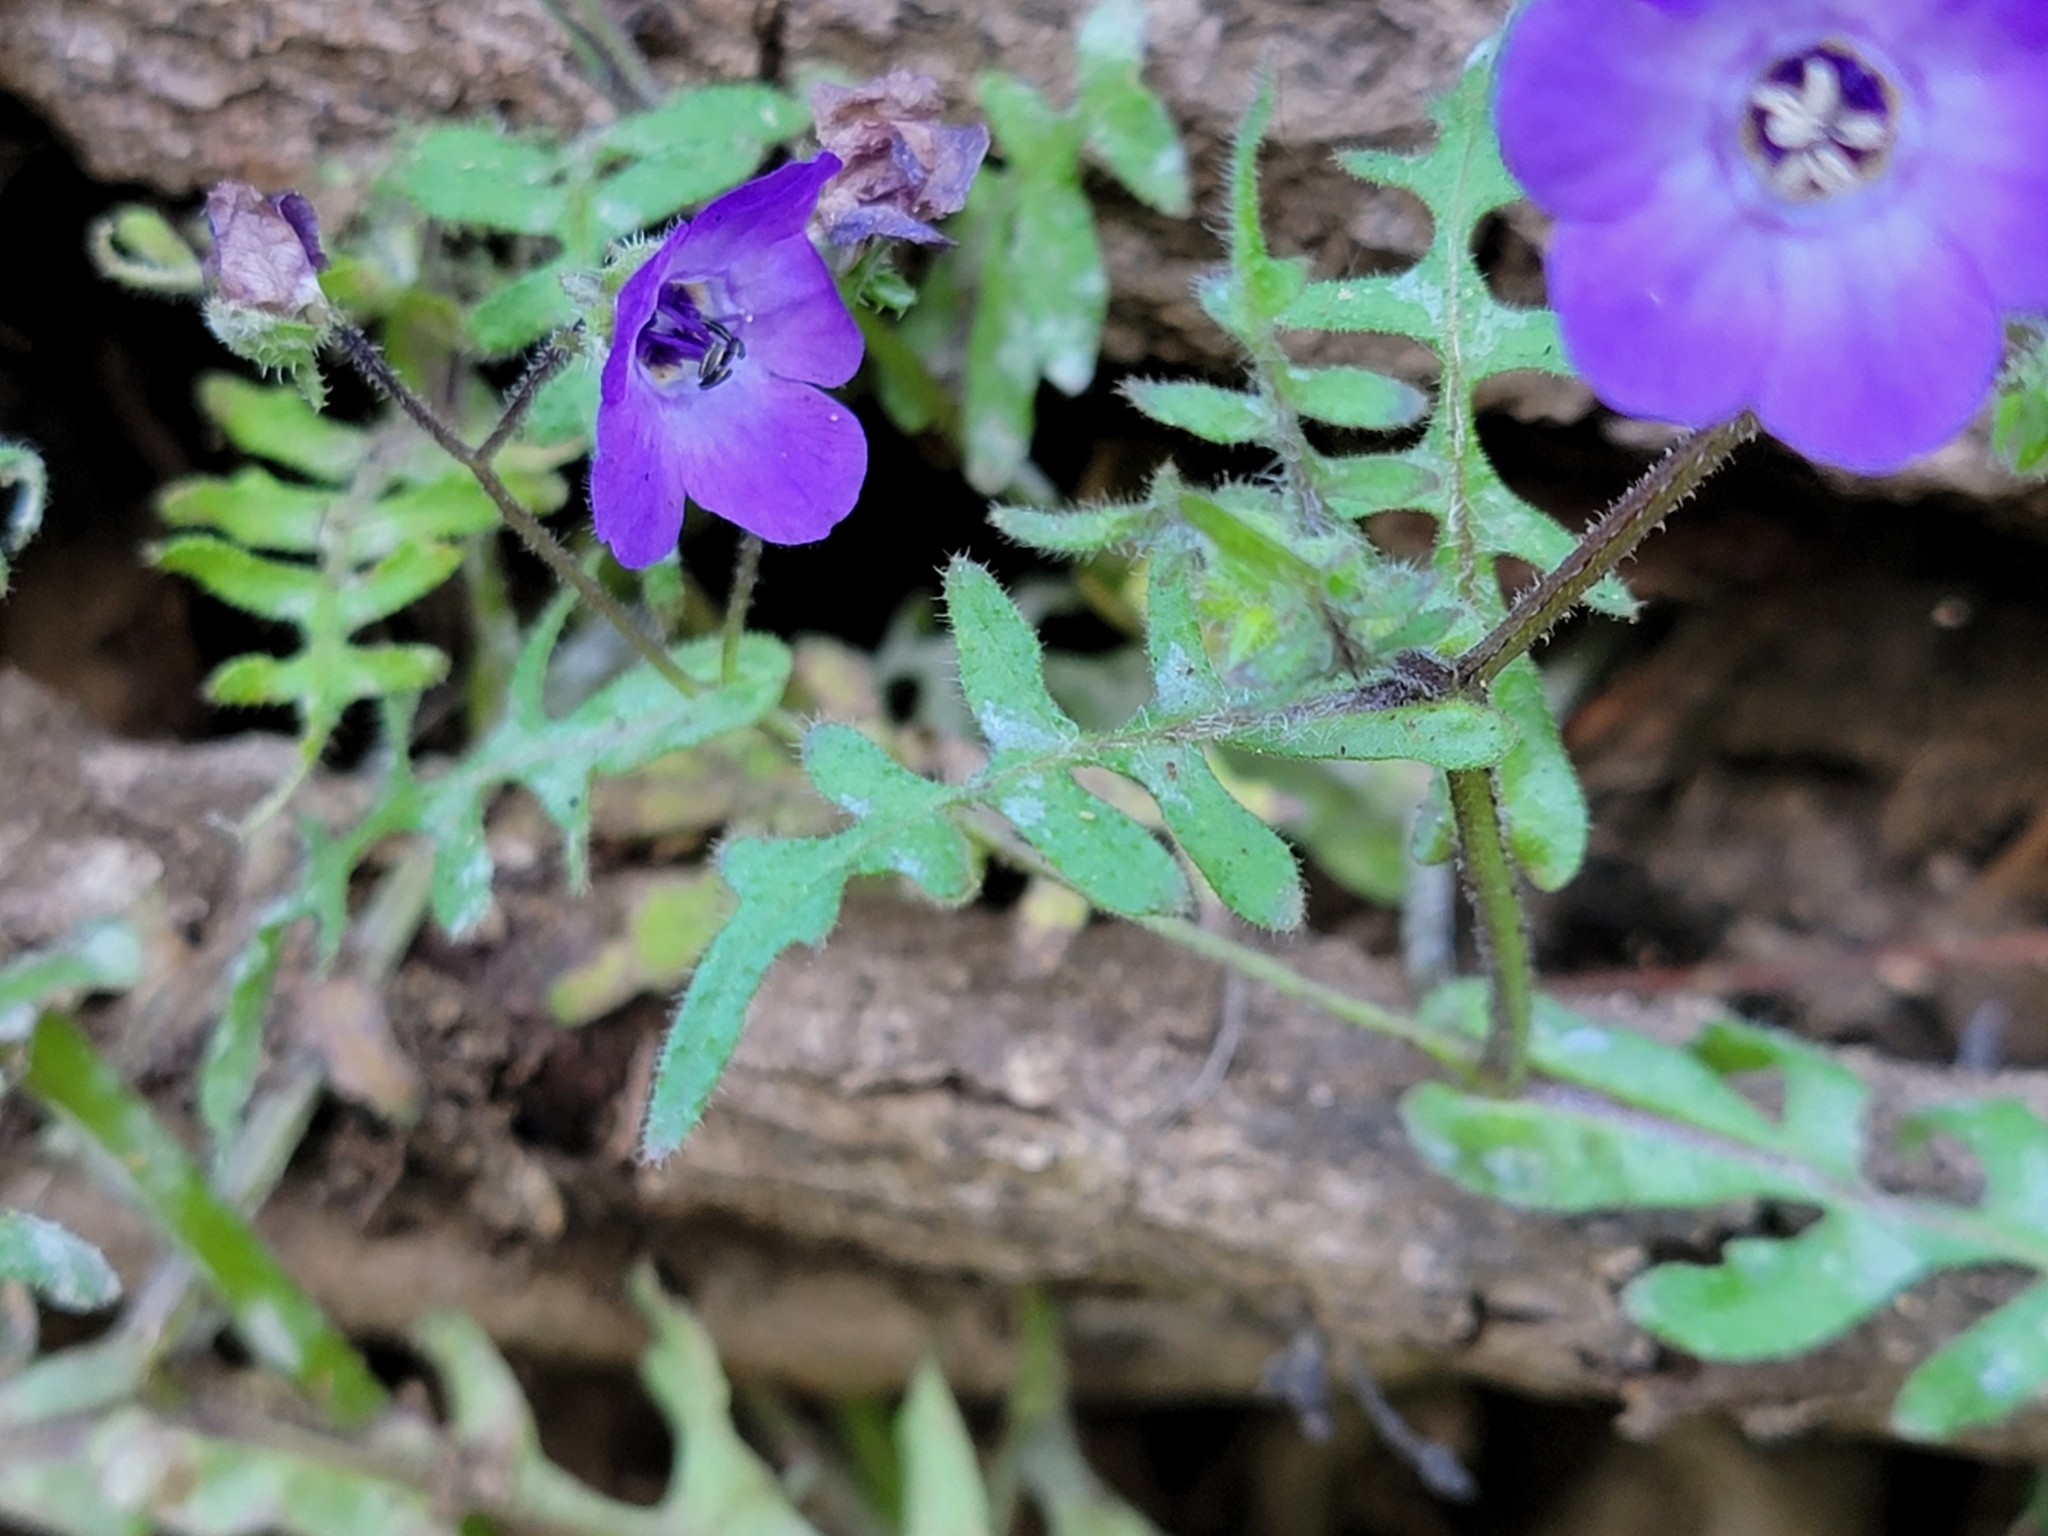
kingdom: Plantae
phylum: Tracheophyta
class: Magnoliopsida
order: Boraginales
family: Hydrophyllaceae
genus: Pholistoma
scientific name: Pholistoma auritum
